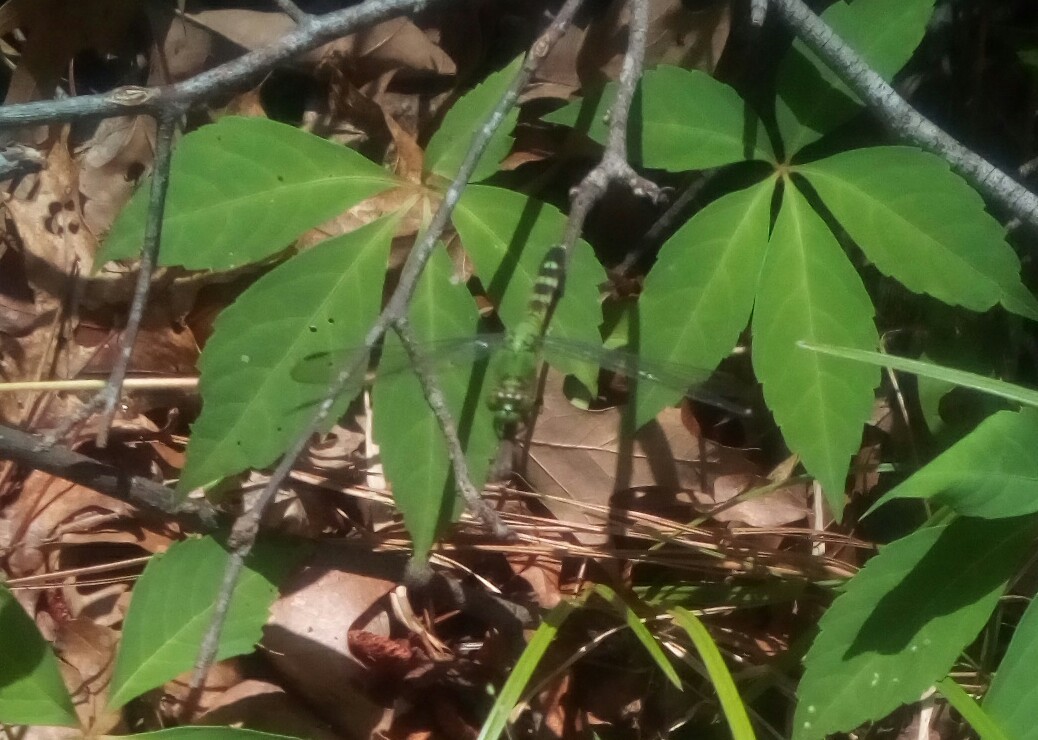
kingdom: Animalia
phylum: Arthropoda
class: Insecta
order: Odonata
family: Libellulidae
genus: Erythemis
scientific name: Erythemis simplicicollis
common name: Eastern pondhawk
